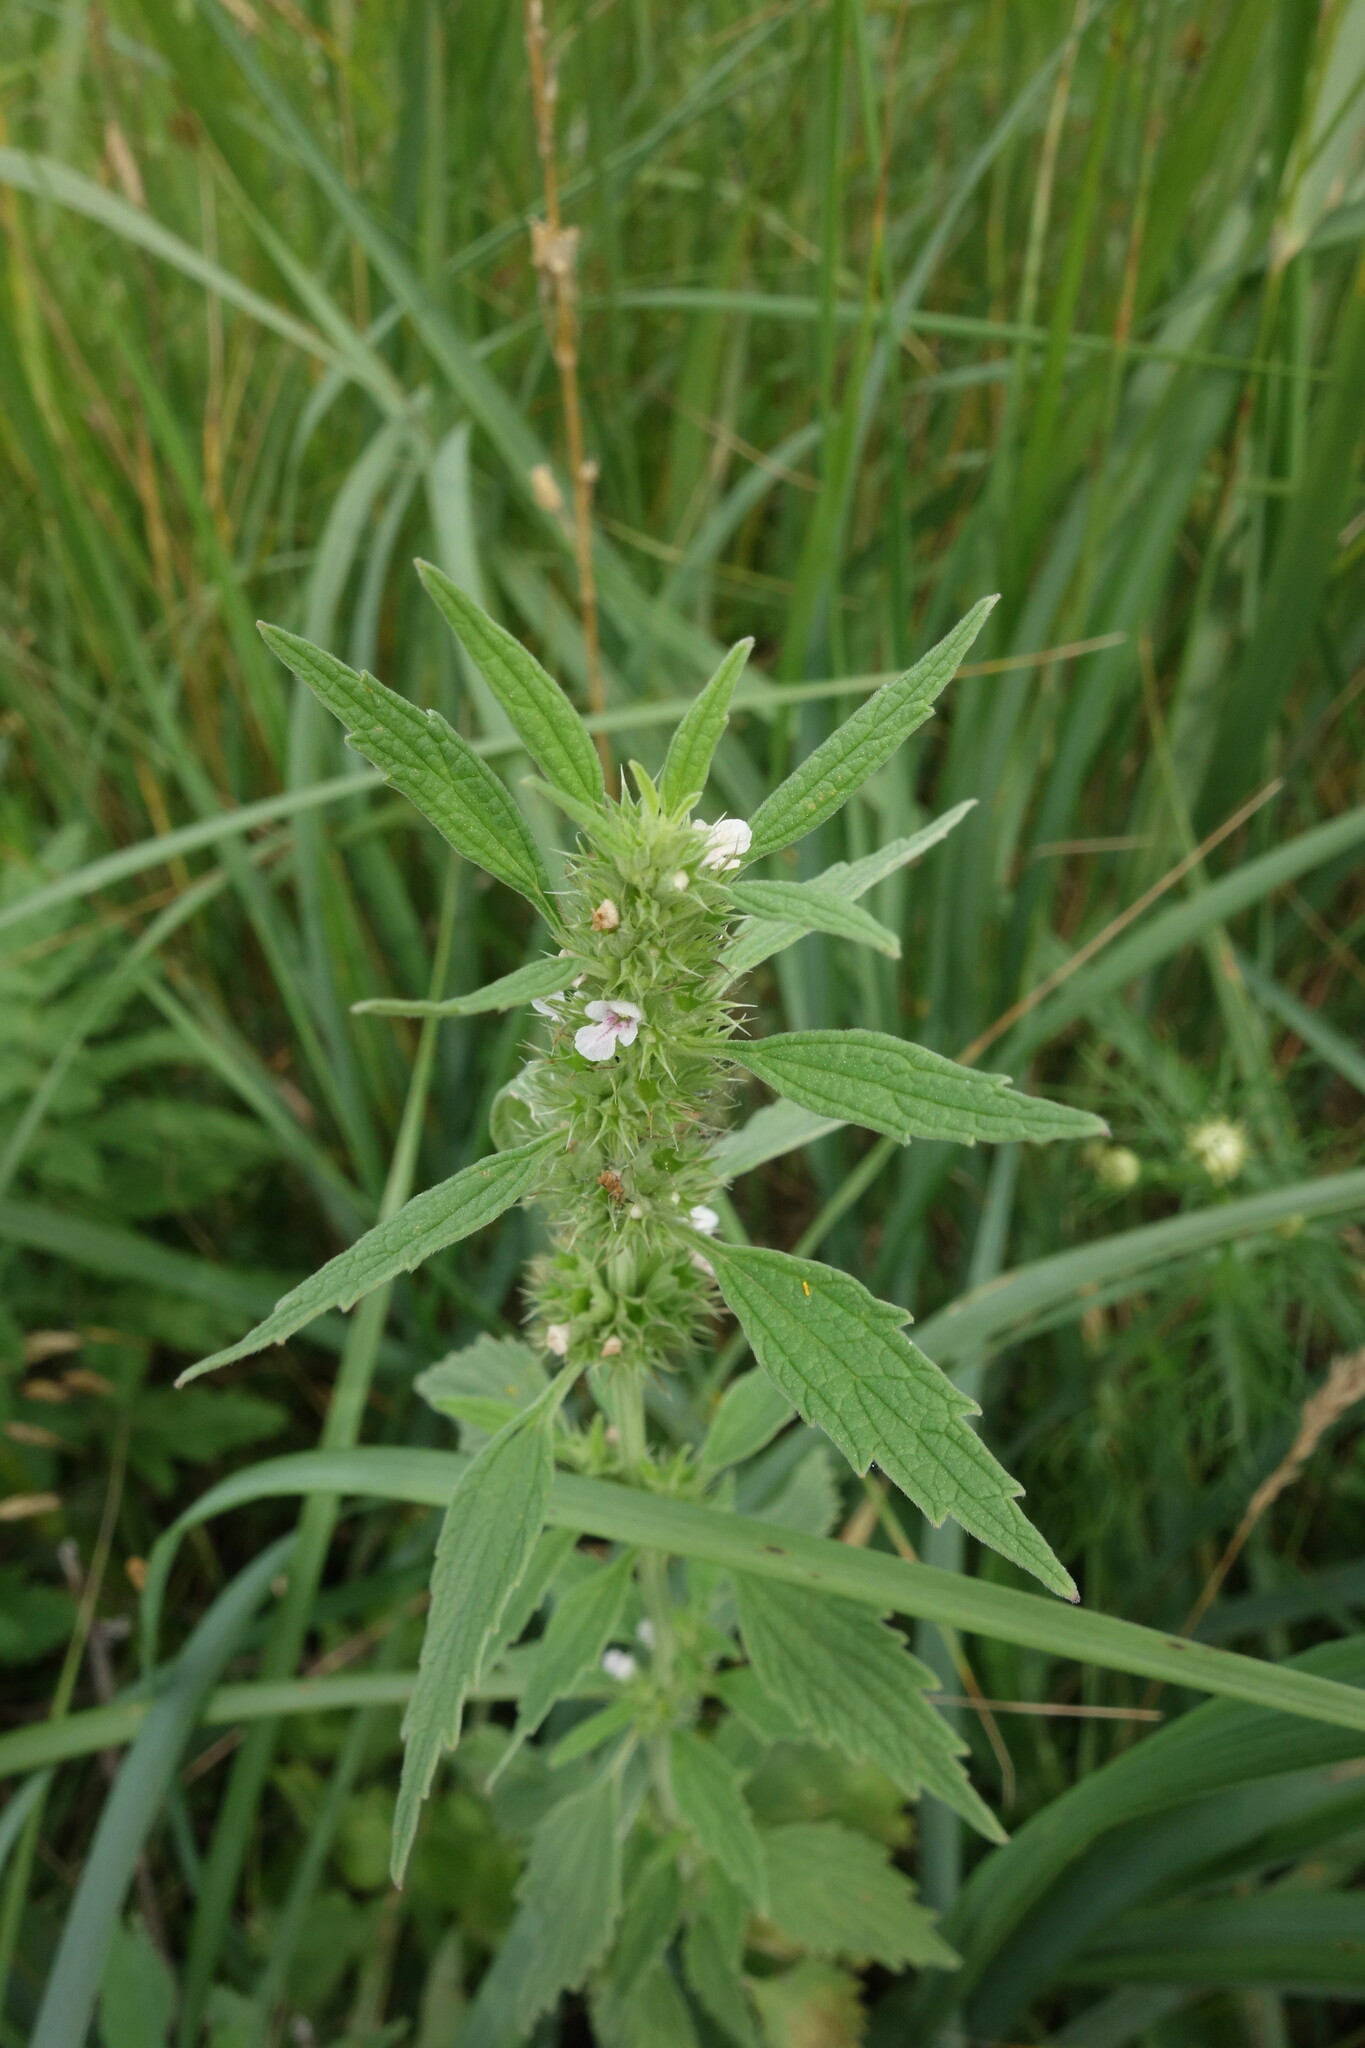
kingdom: Plantae
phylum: Tracheophyta
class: Magnoliopsida
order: Lamiales
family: Lamiaceae
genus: Chaiturus
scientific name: Chaiturus marrubiastrum
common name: Lion's tail
